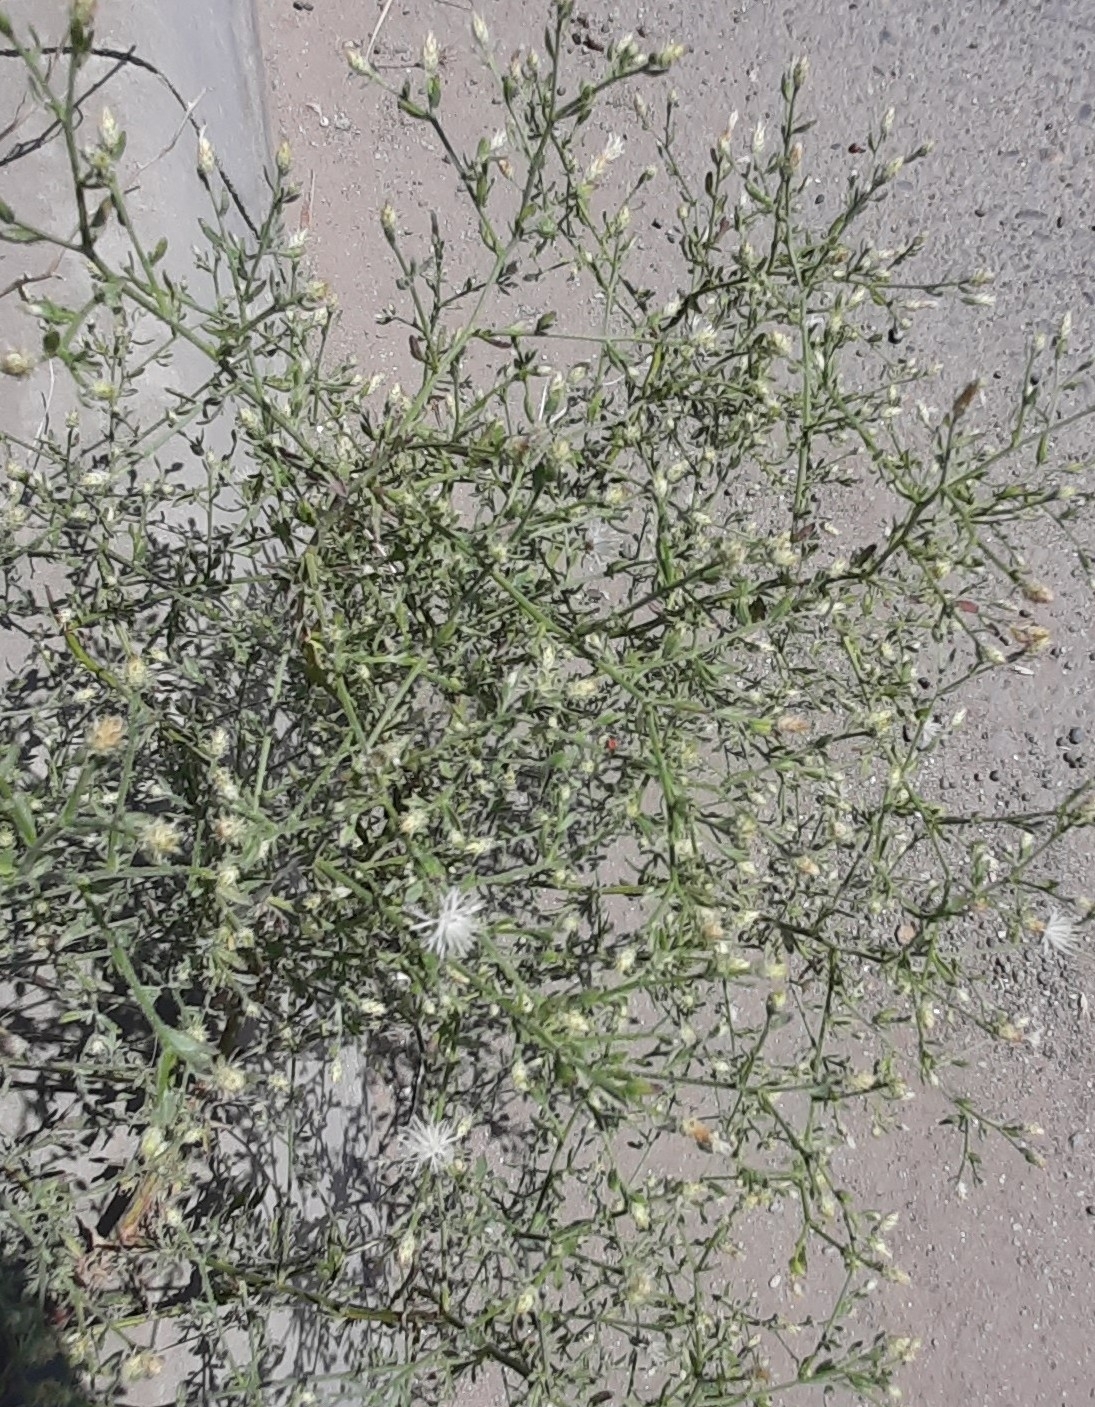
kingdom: Plantae
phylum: Tracheophyta
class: Magnoliopsida
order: Asterales
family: Asteraceae
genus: Centaurea
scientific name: Centaurea diffusa
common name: Diffuse knapweed
